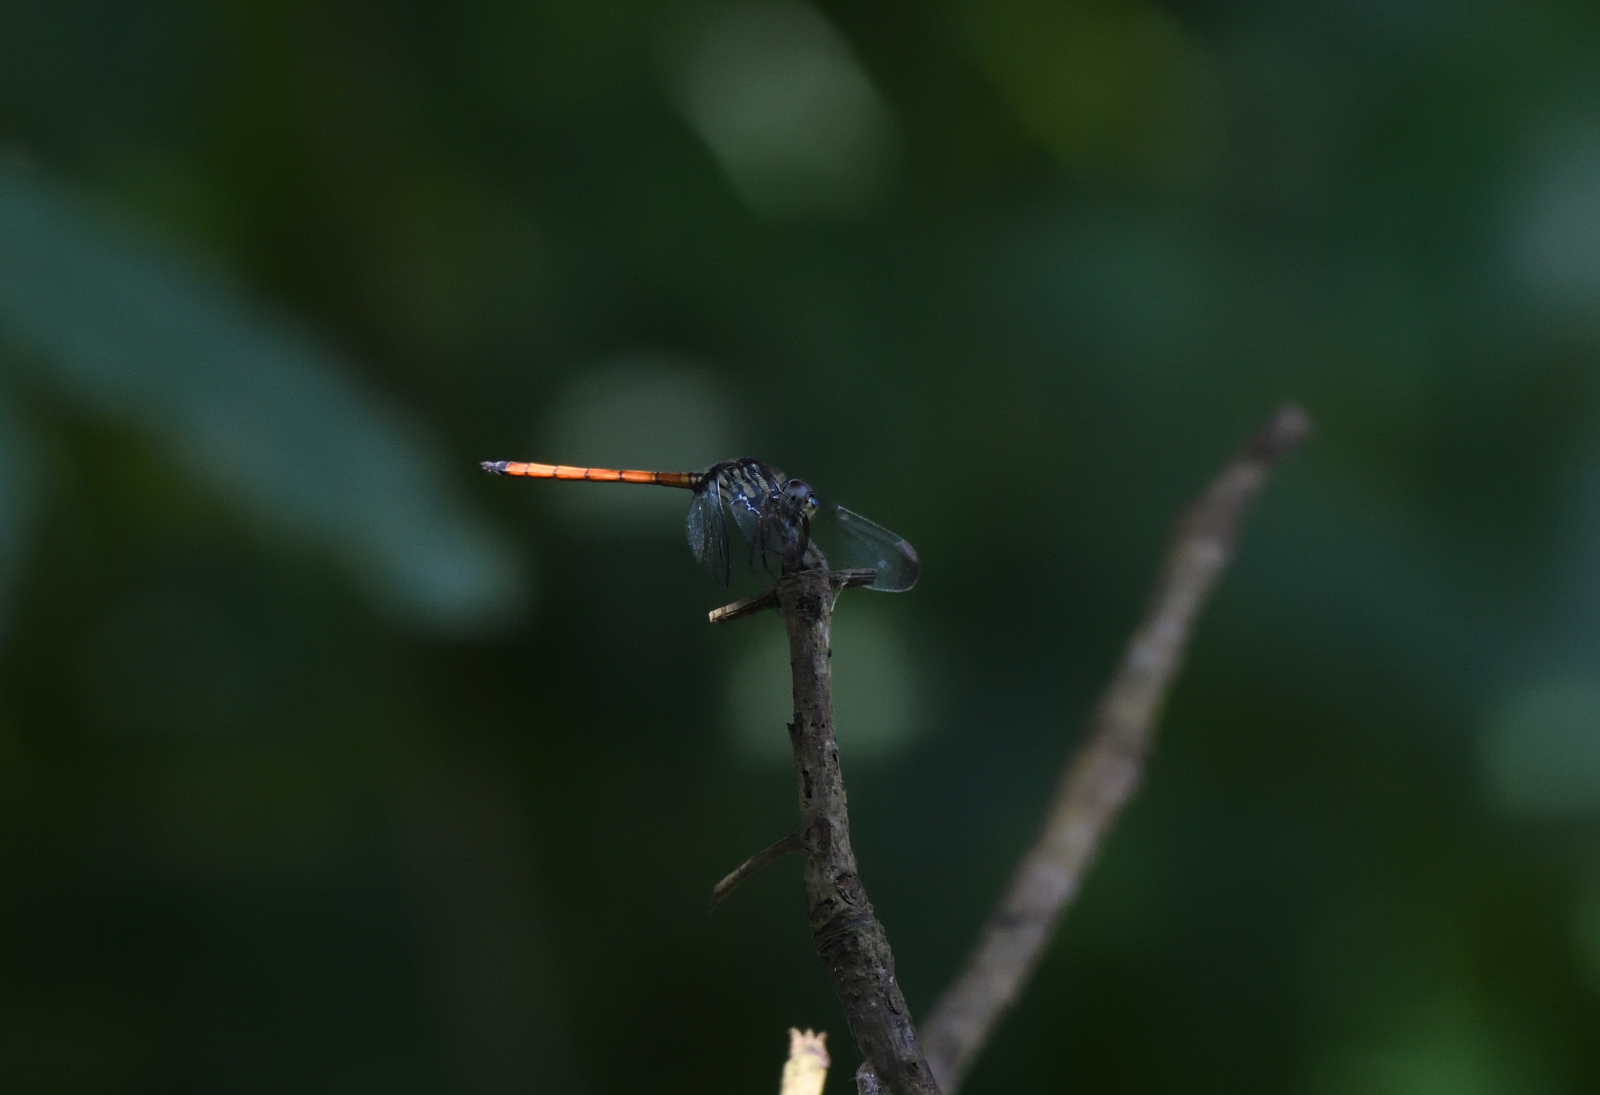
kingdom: Animalia
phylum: Arthropoda
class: Insecta
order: Odonata
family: Libellulidae
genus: Lathrecista
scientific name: Lathrecista asiatica
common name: Scarlet grenadier
